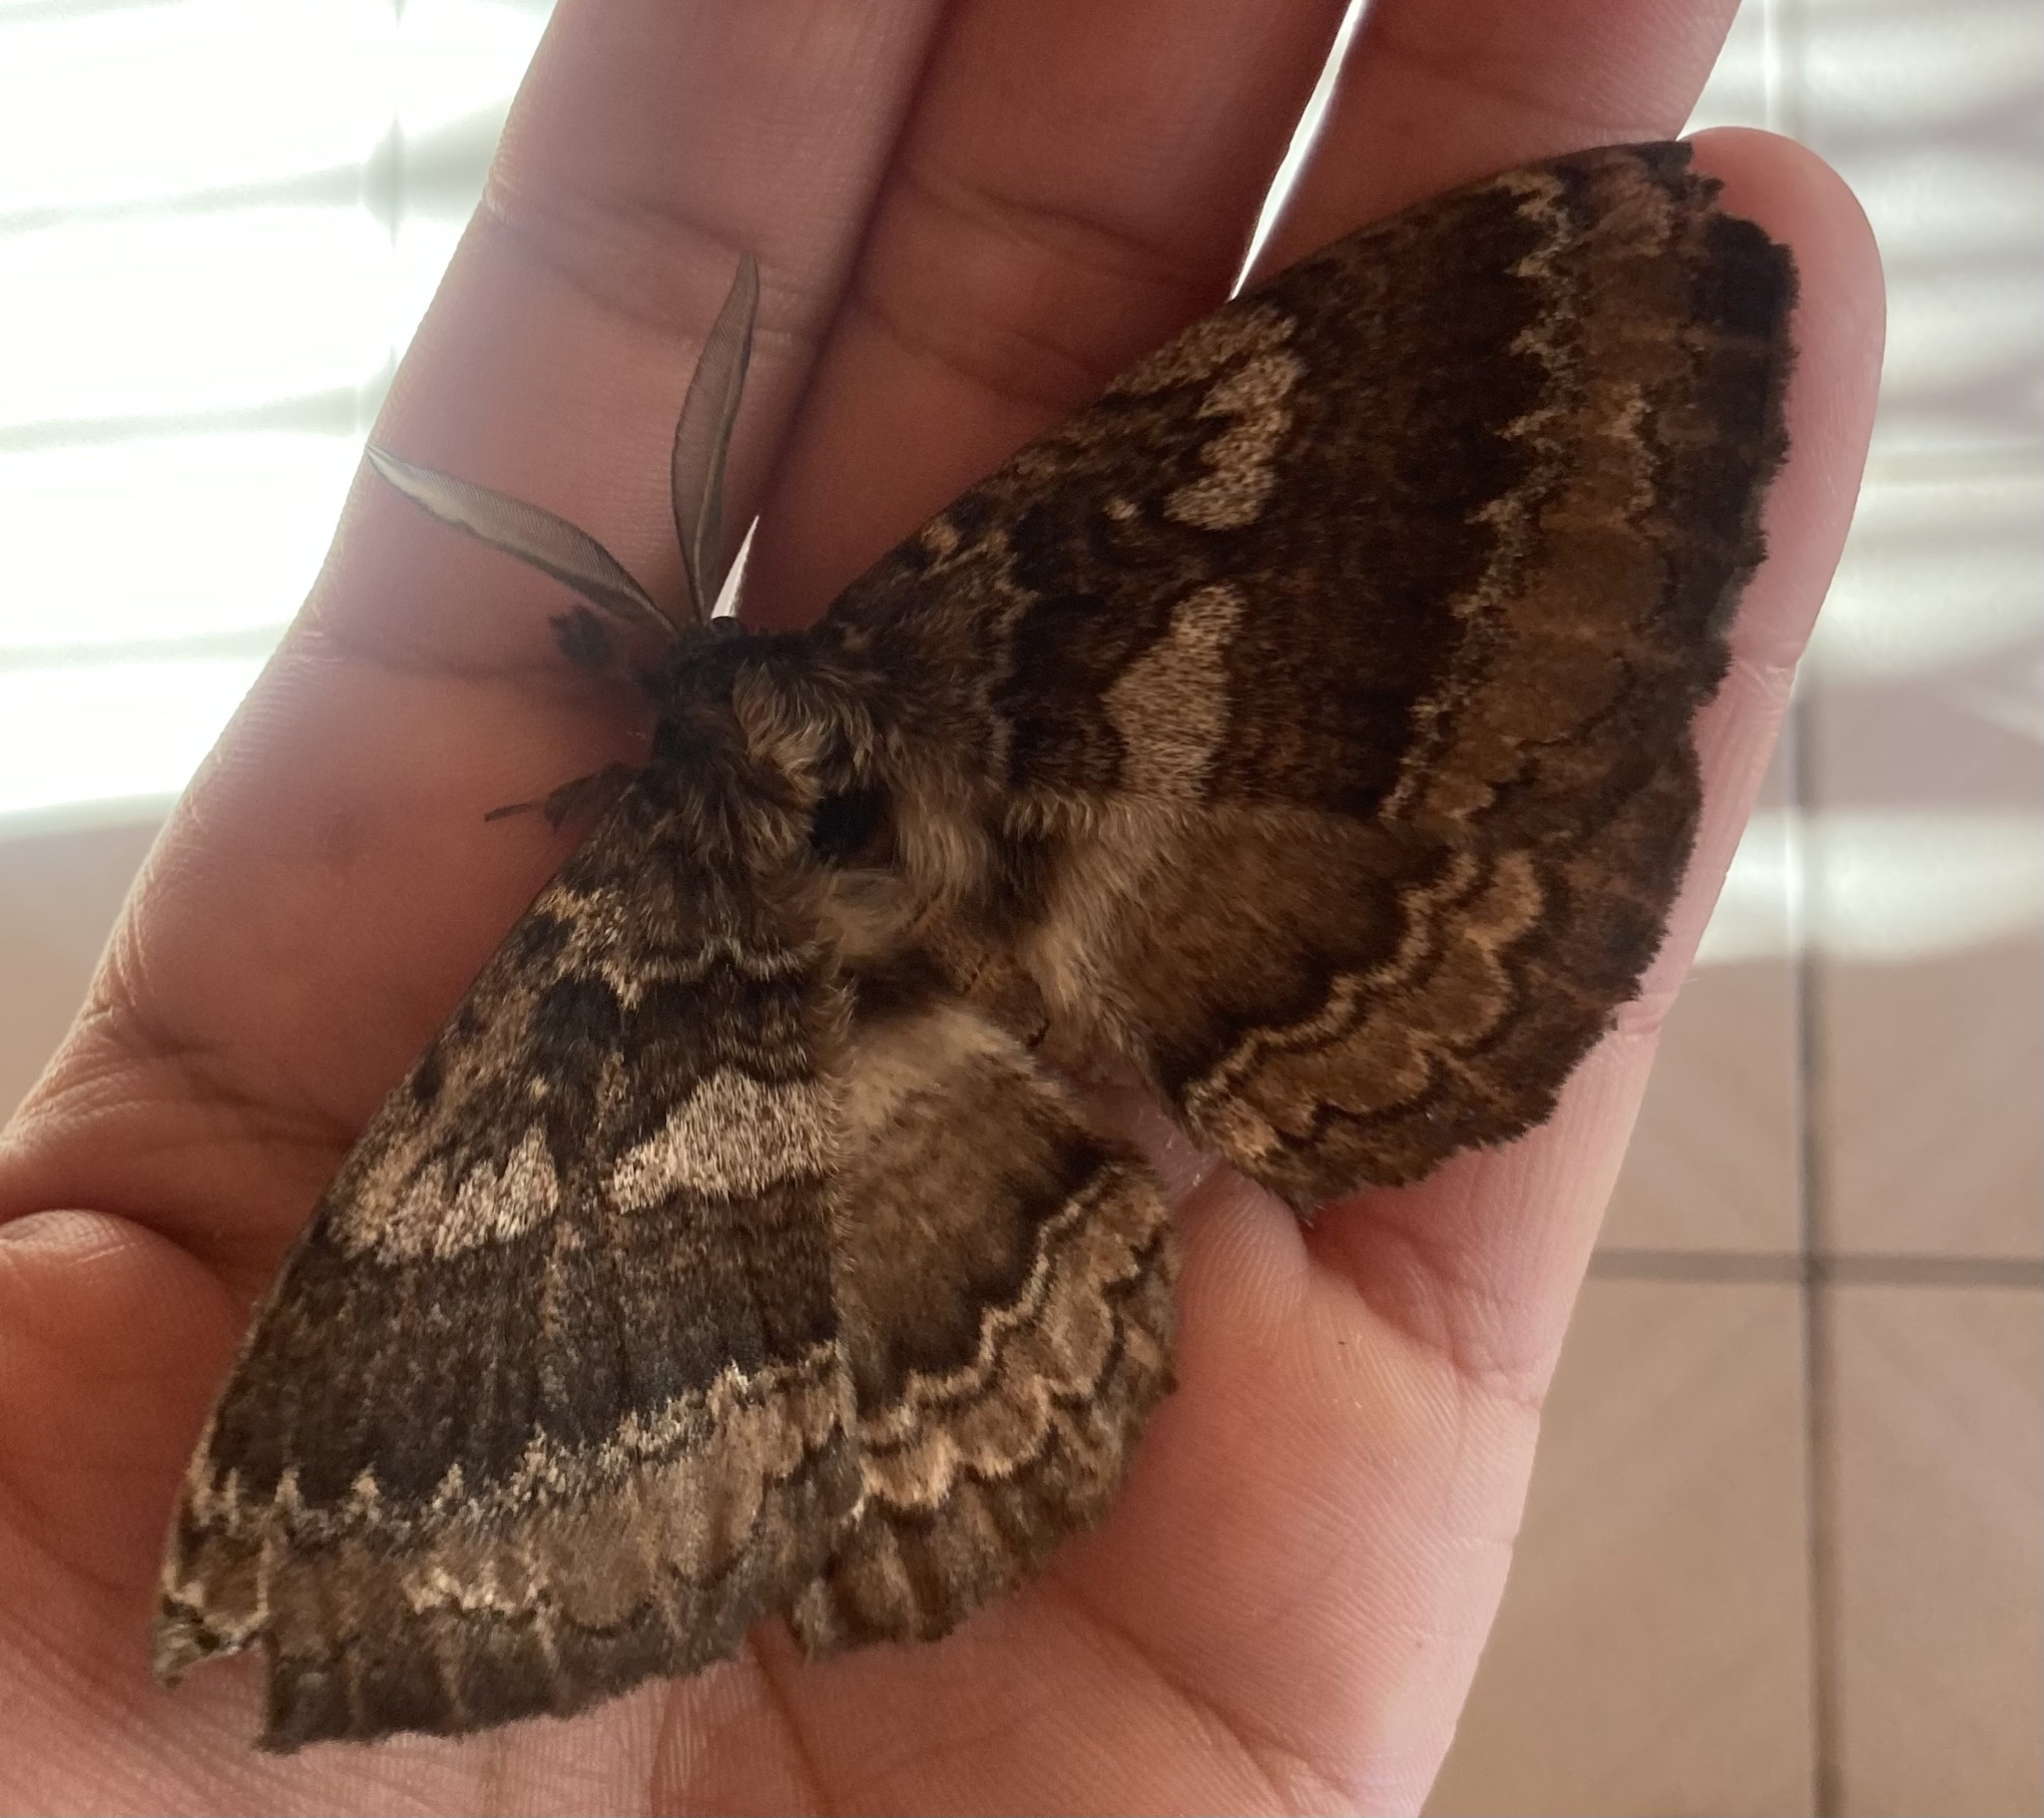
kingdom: Animalia
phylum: Arthropoda
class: Insecta
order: Lepidoptera
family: Eupterotidae
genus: Striphnopteryx
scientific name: Striphnopteryx edulis
